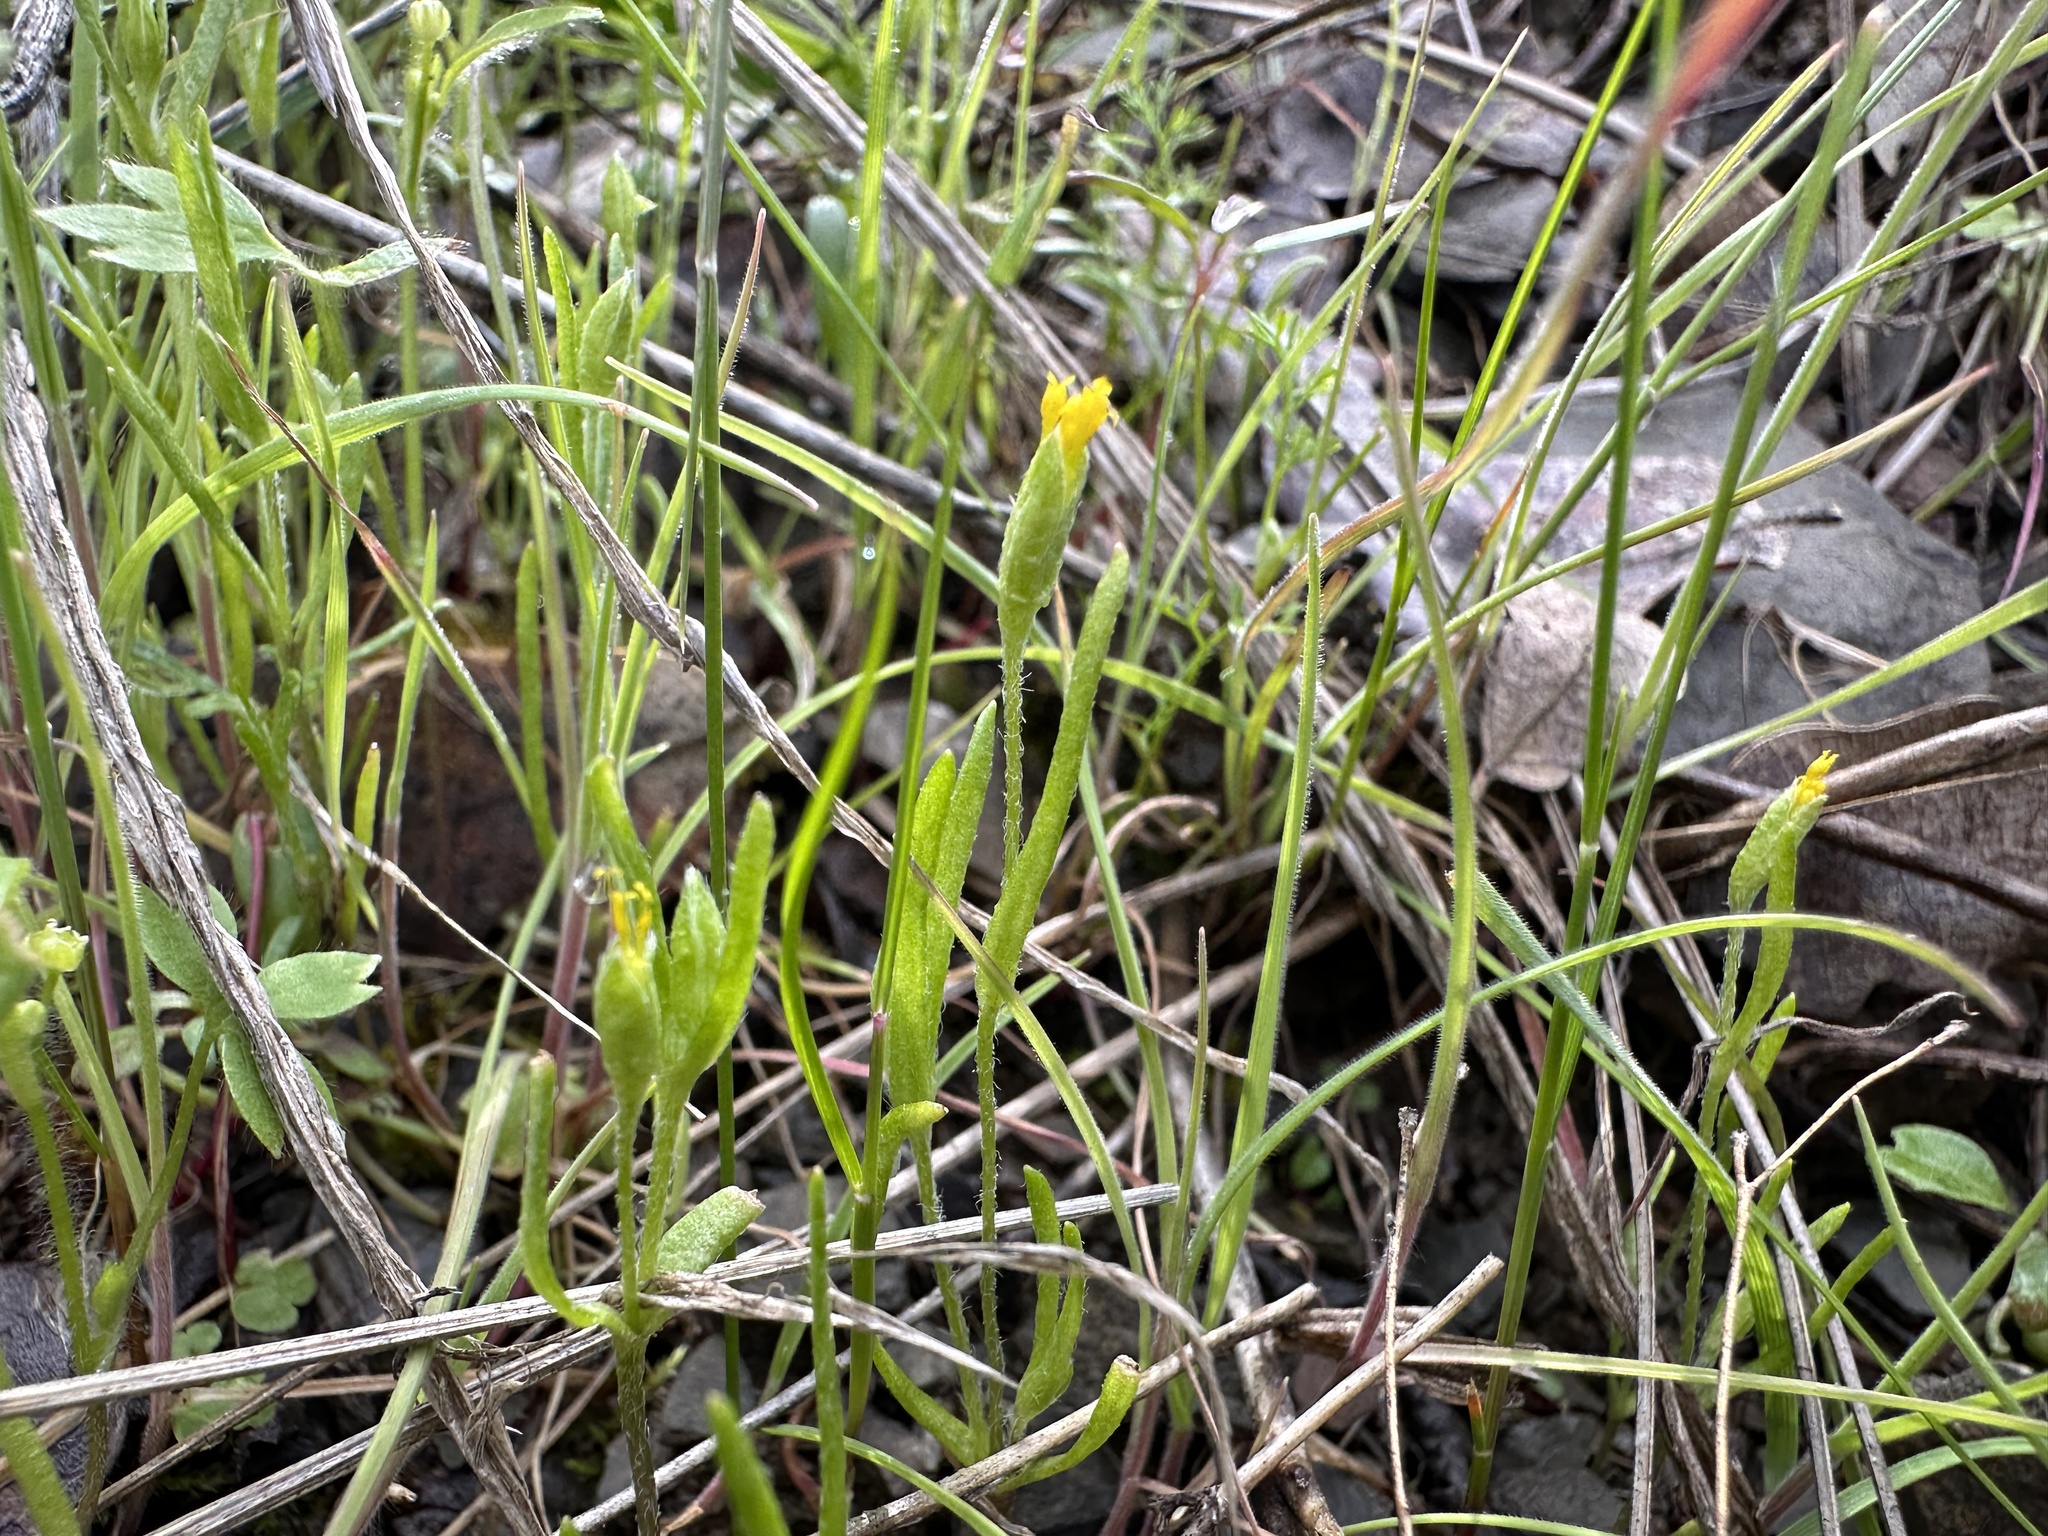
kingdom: Plantae
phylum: Tracheophyta
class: Magnoliopsida
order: Asterales
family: Asteraceae
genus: Lasthenia
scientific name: Lasthenia microglossa
